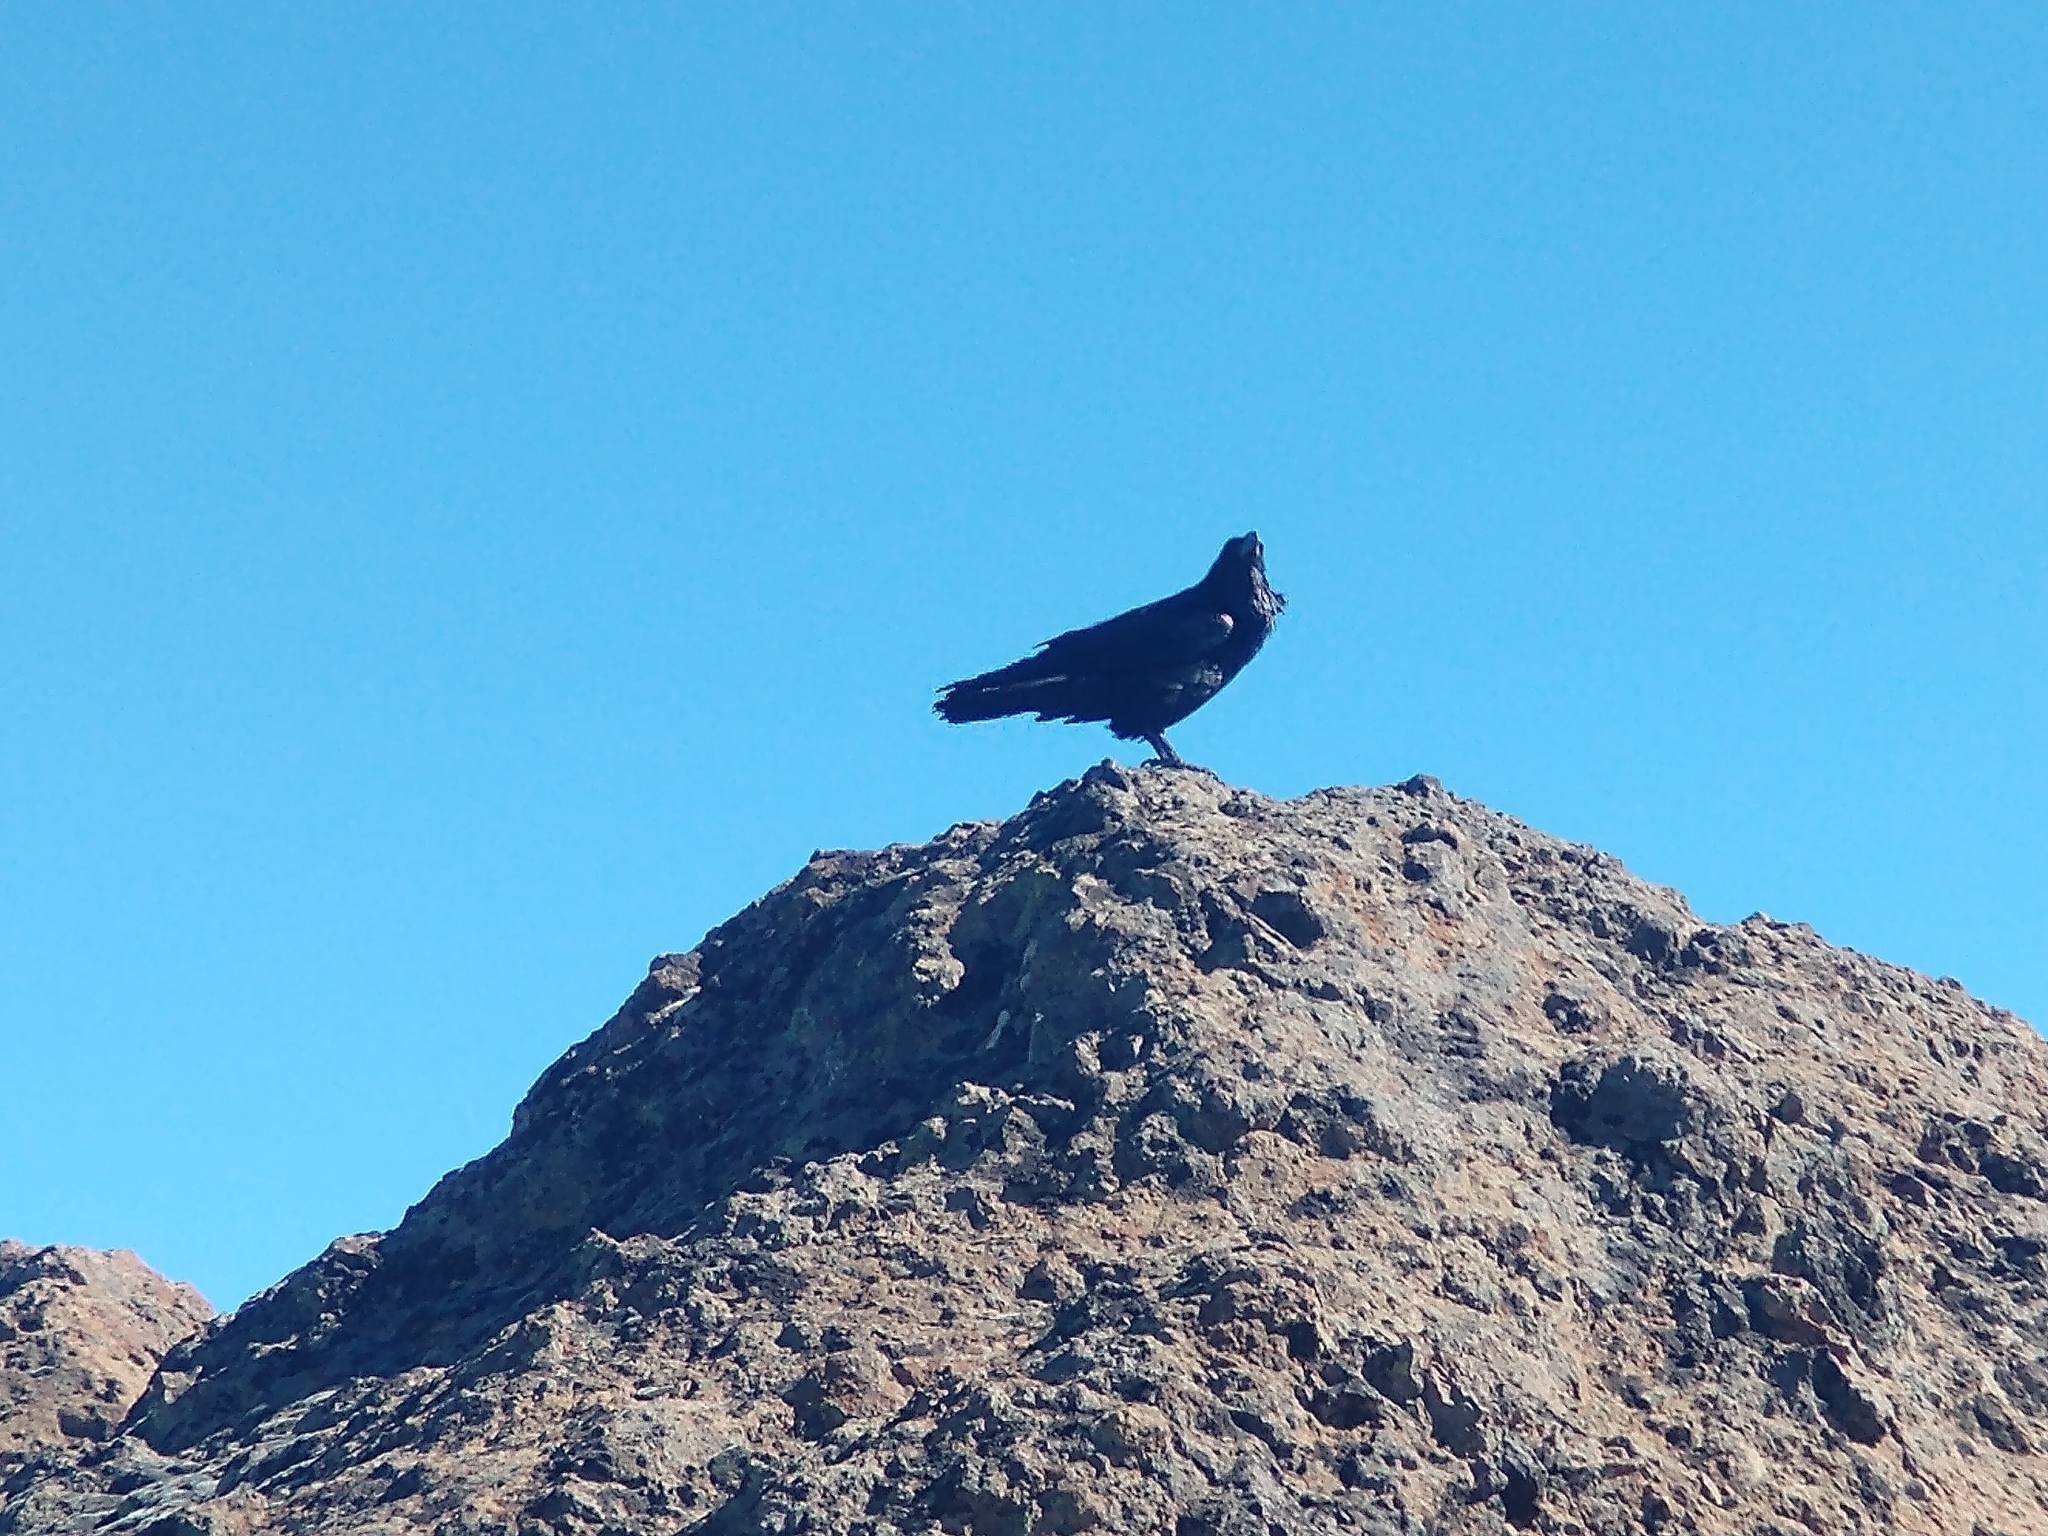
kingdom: Animalia
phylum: Chordata
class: Aves
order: Passeriformes
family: Corvidae
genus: Corvus
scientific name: Corvus corax
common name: Common raven
